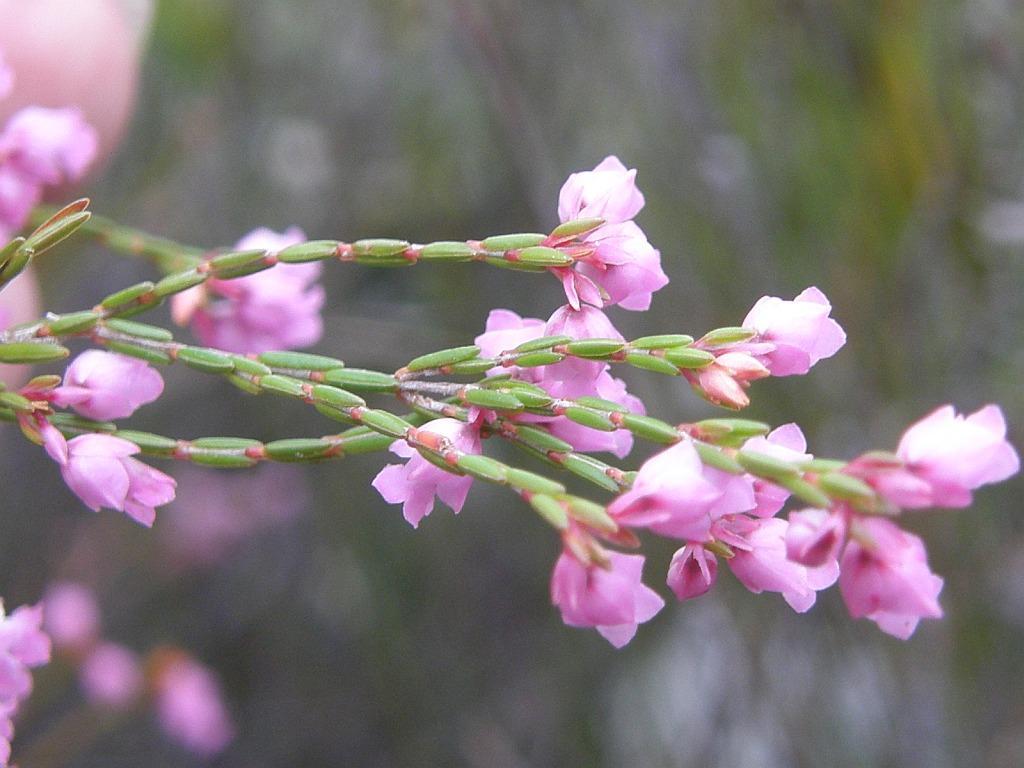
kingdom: Plantae
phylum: Tracheophyta
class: Magnoliopsida
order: Ericales
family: Ericaceae
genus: Erica
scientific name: Erica tenuifolia
